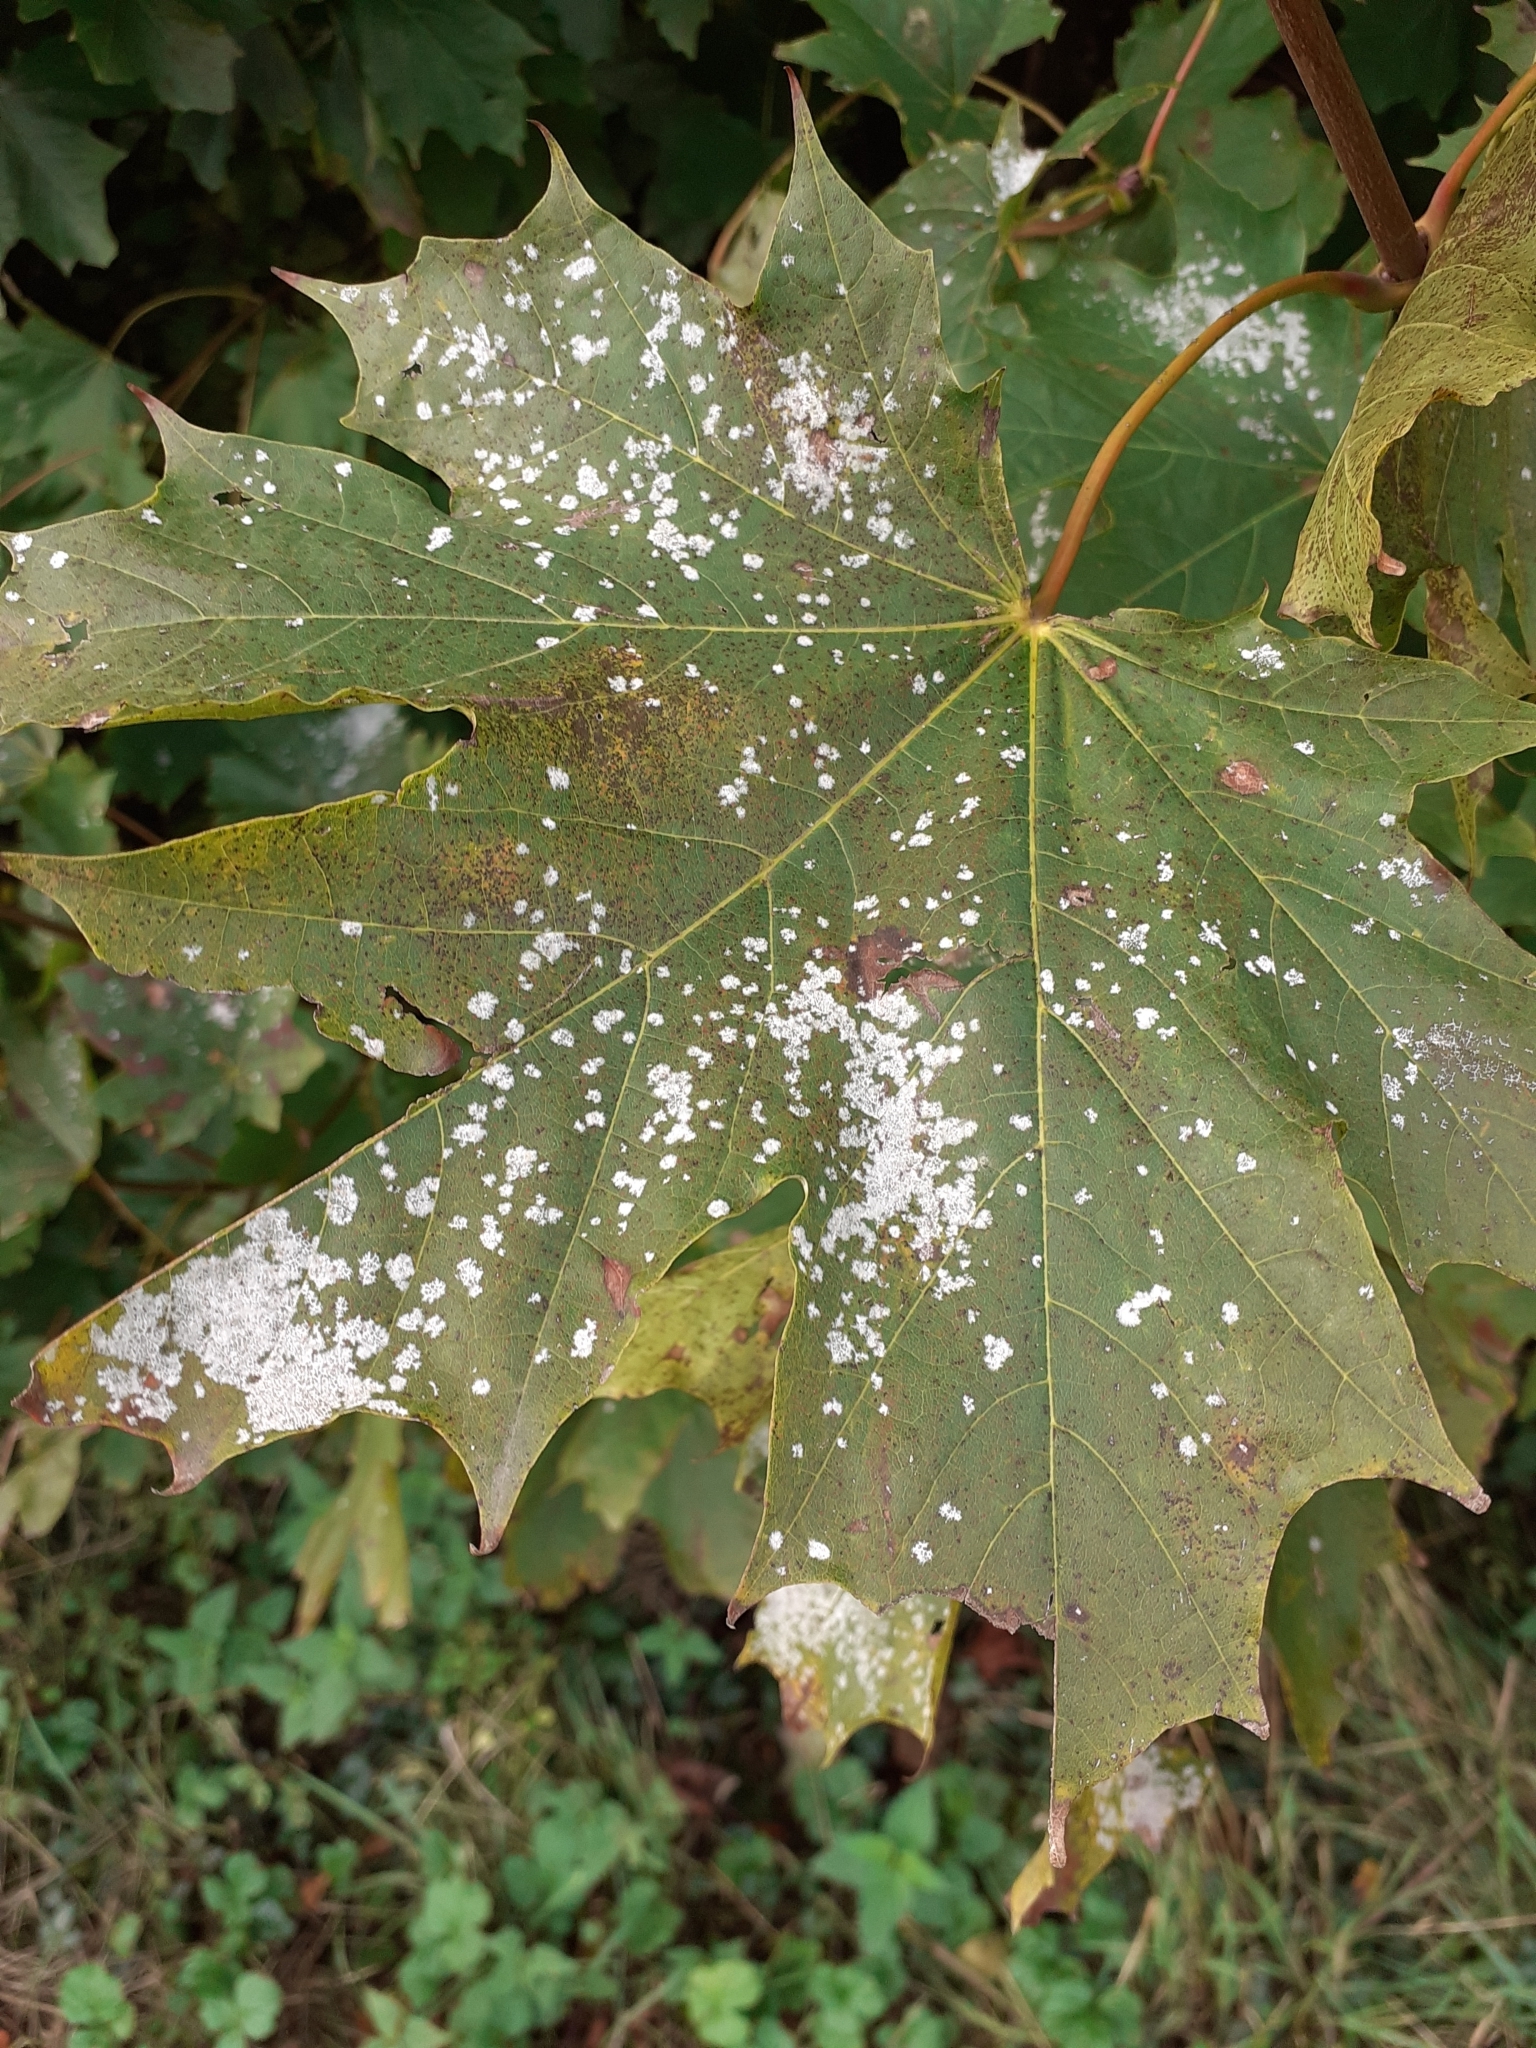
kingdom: Fungi
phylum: Ascomycota
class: Leotiomycetes
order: Helotiales
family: Erysiphaceae
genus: Sawadaea
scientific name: Sawadaea tulasnei
